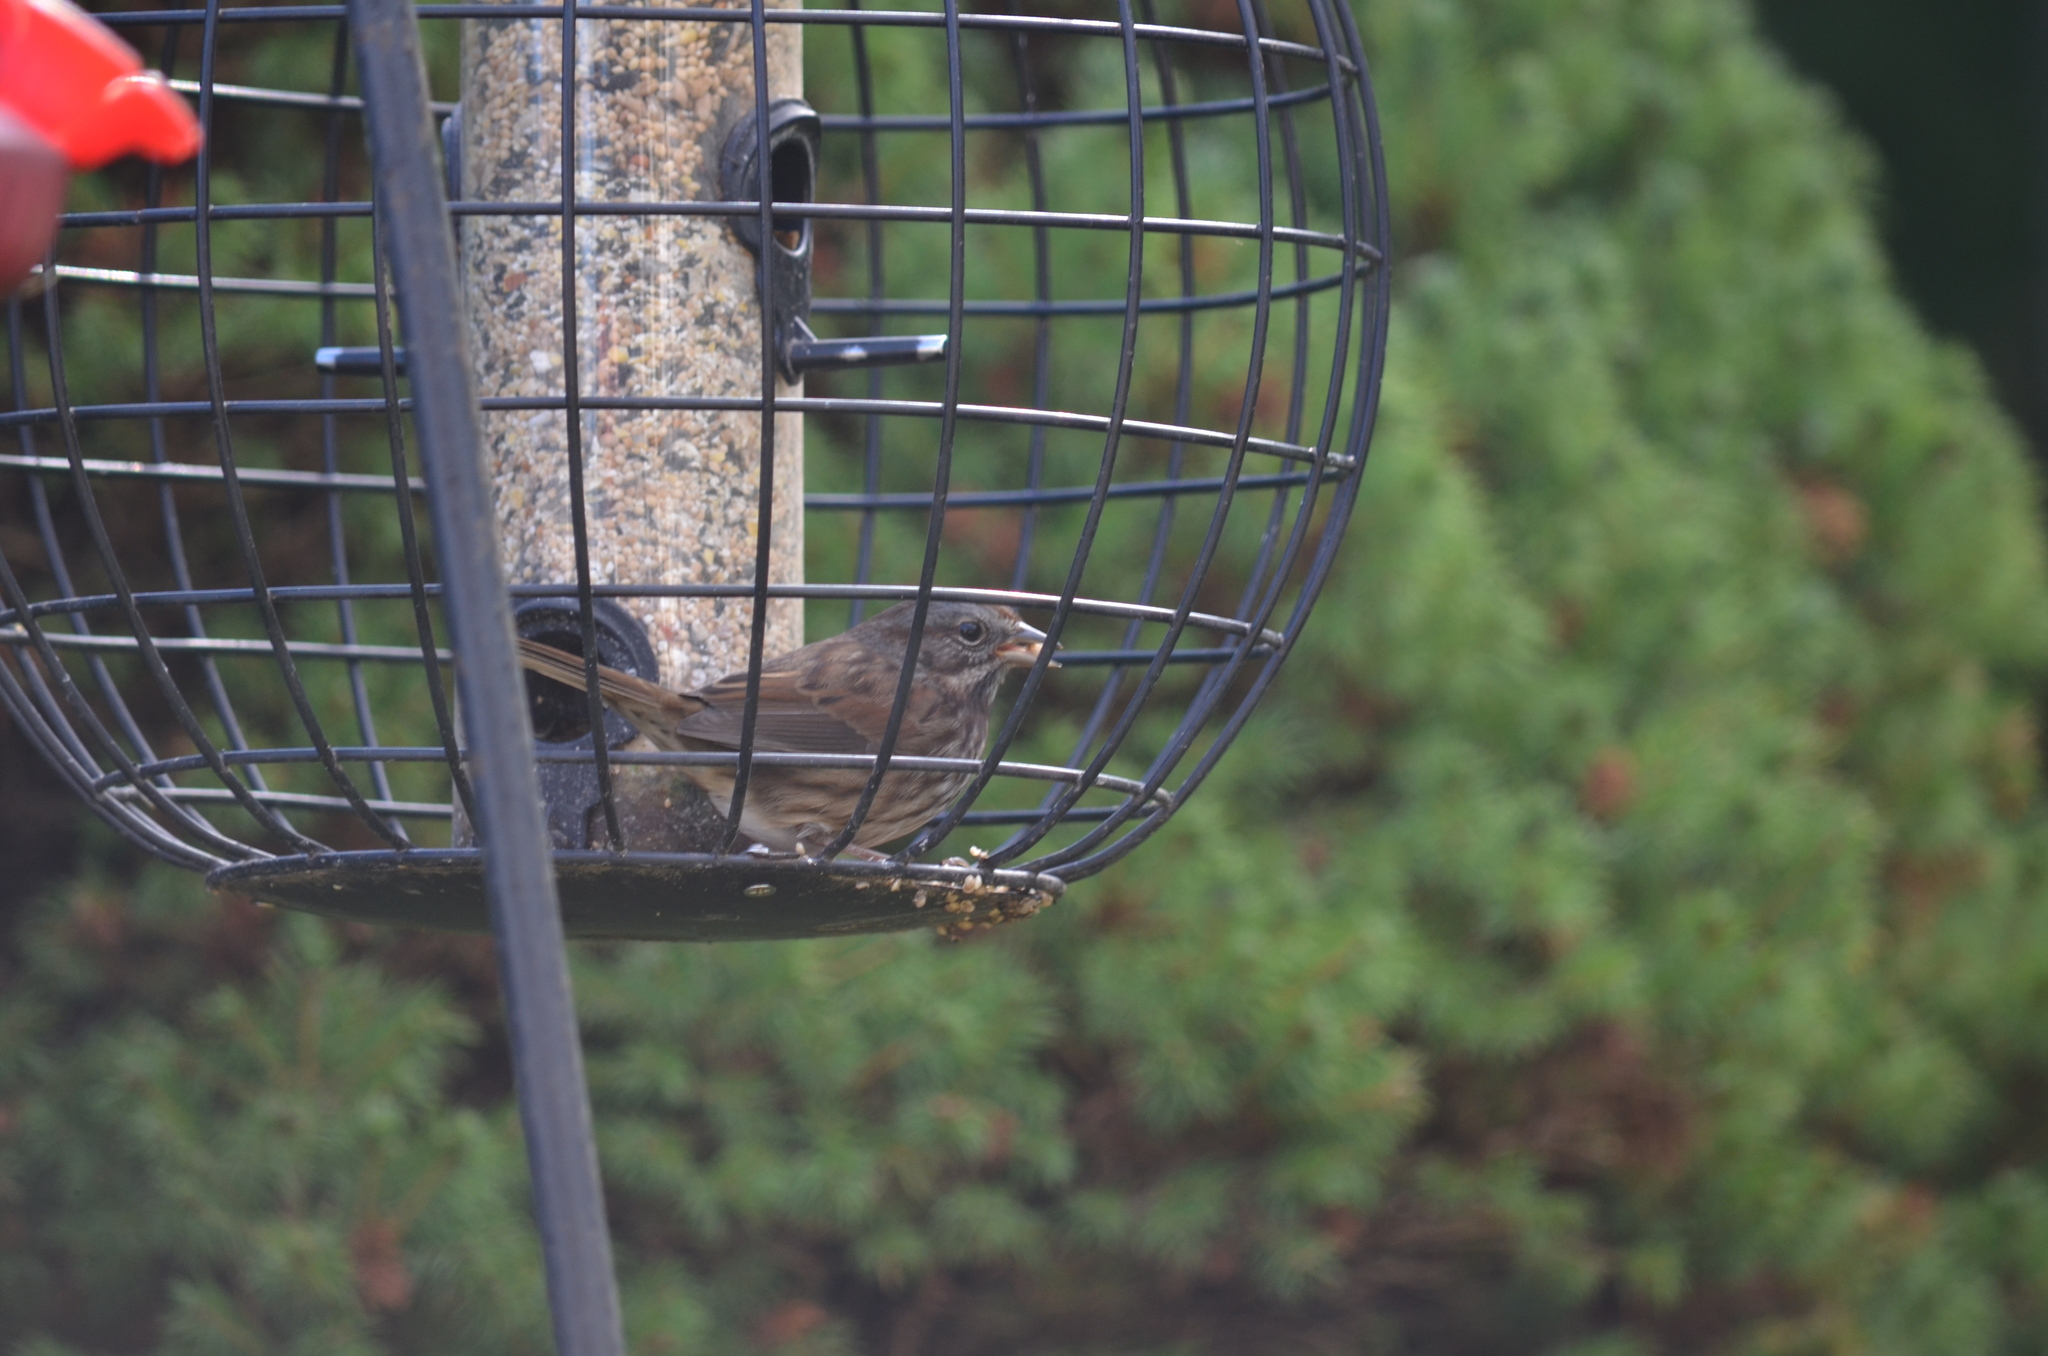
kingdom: Animalia
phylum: Chordata
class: Aves
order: Passeriformes
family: Passerellidae
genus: Melospiza
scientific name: Melospiza melodia
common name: Song sparrow
